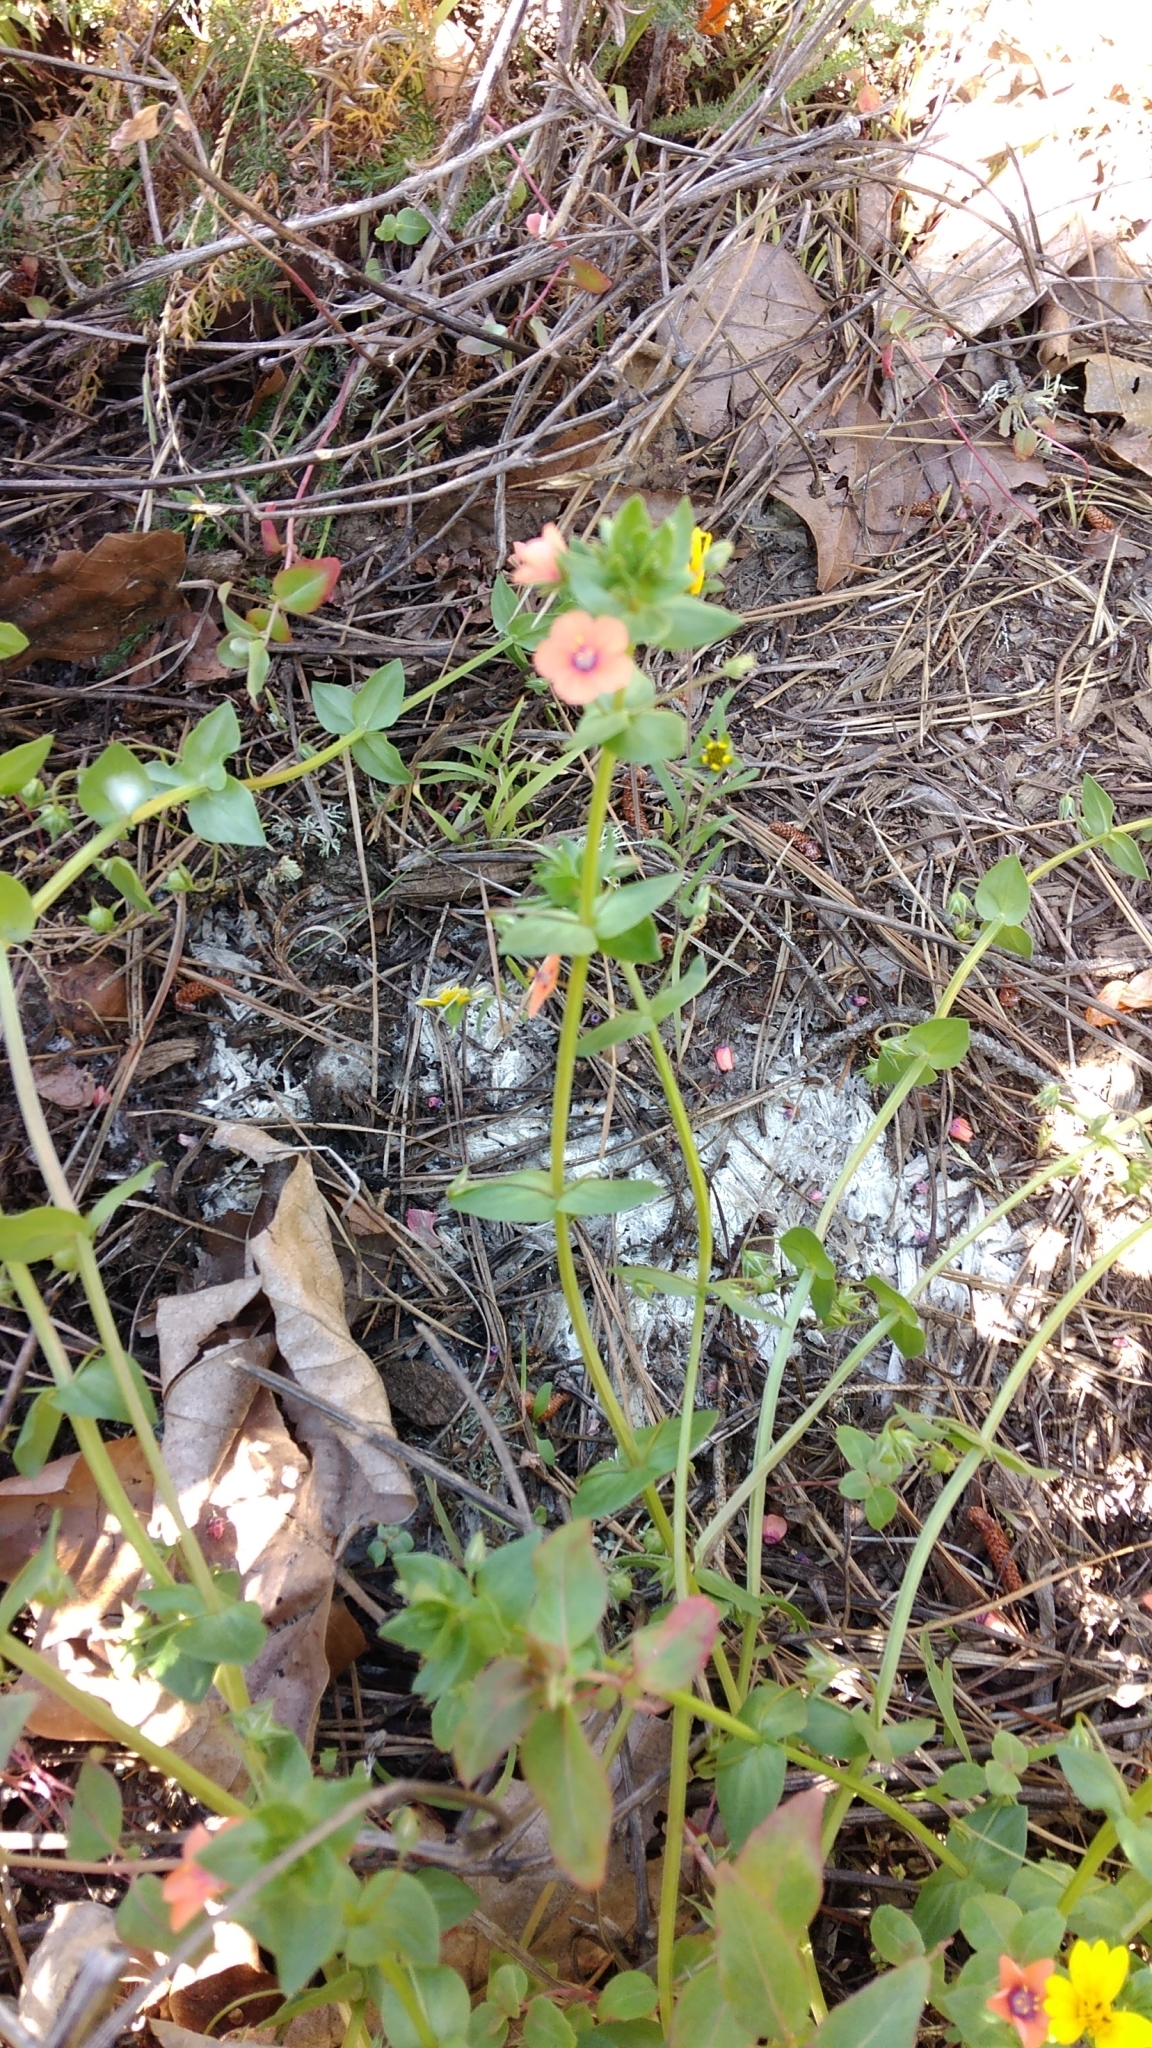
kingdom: Plantae
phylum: Tracheophyta
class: Magnoliopsida
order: Ericales
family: Primulaceae
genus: Lysimachia
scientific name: Lysimachia arvensis
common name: Scarlet pimpernel
